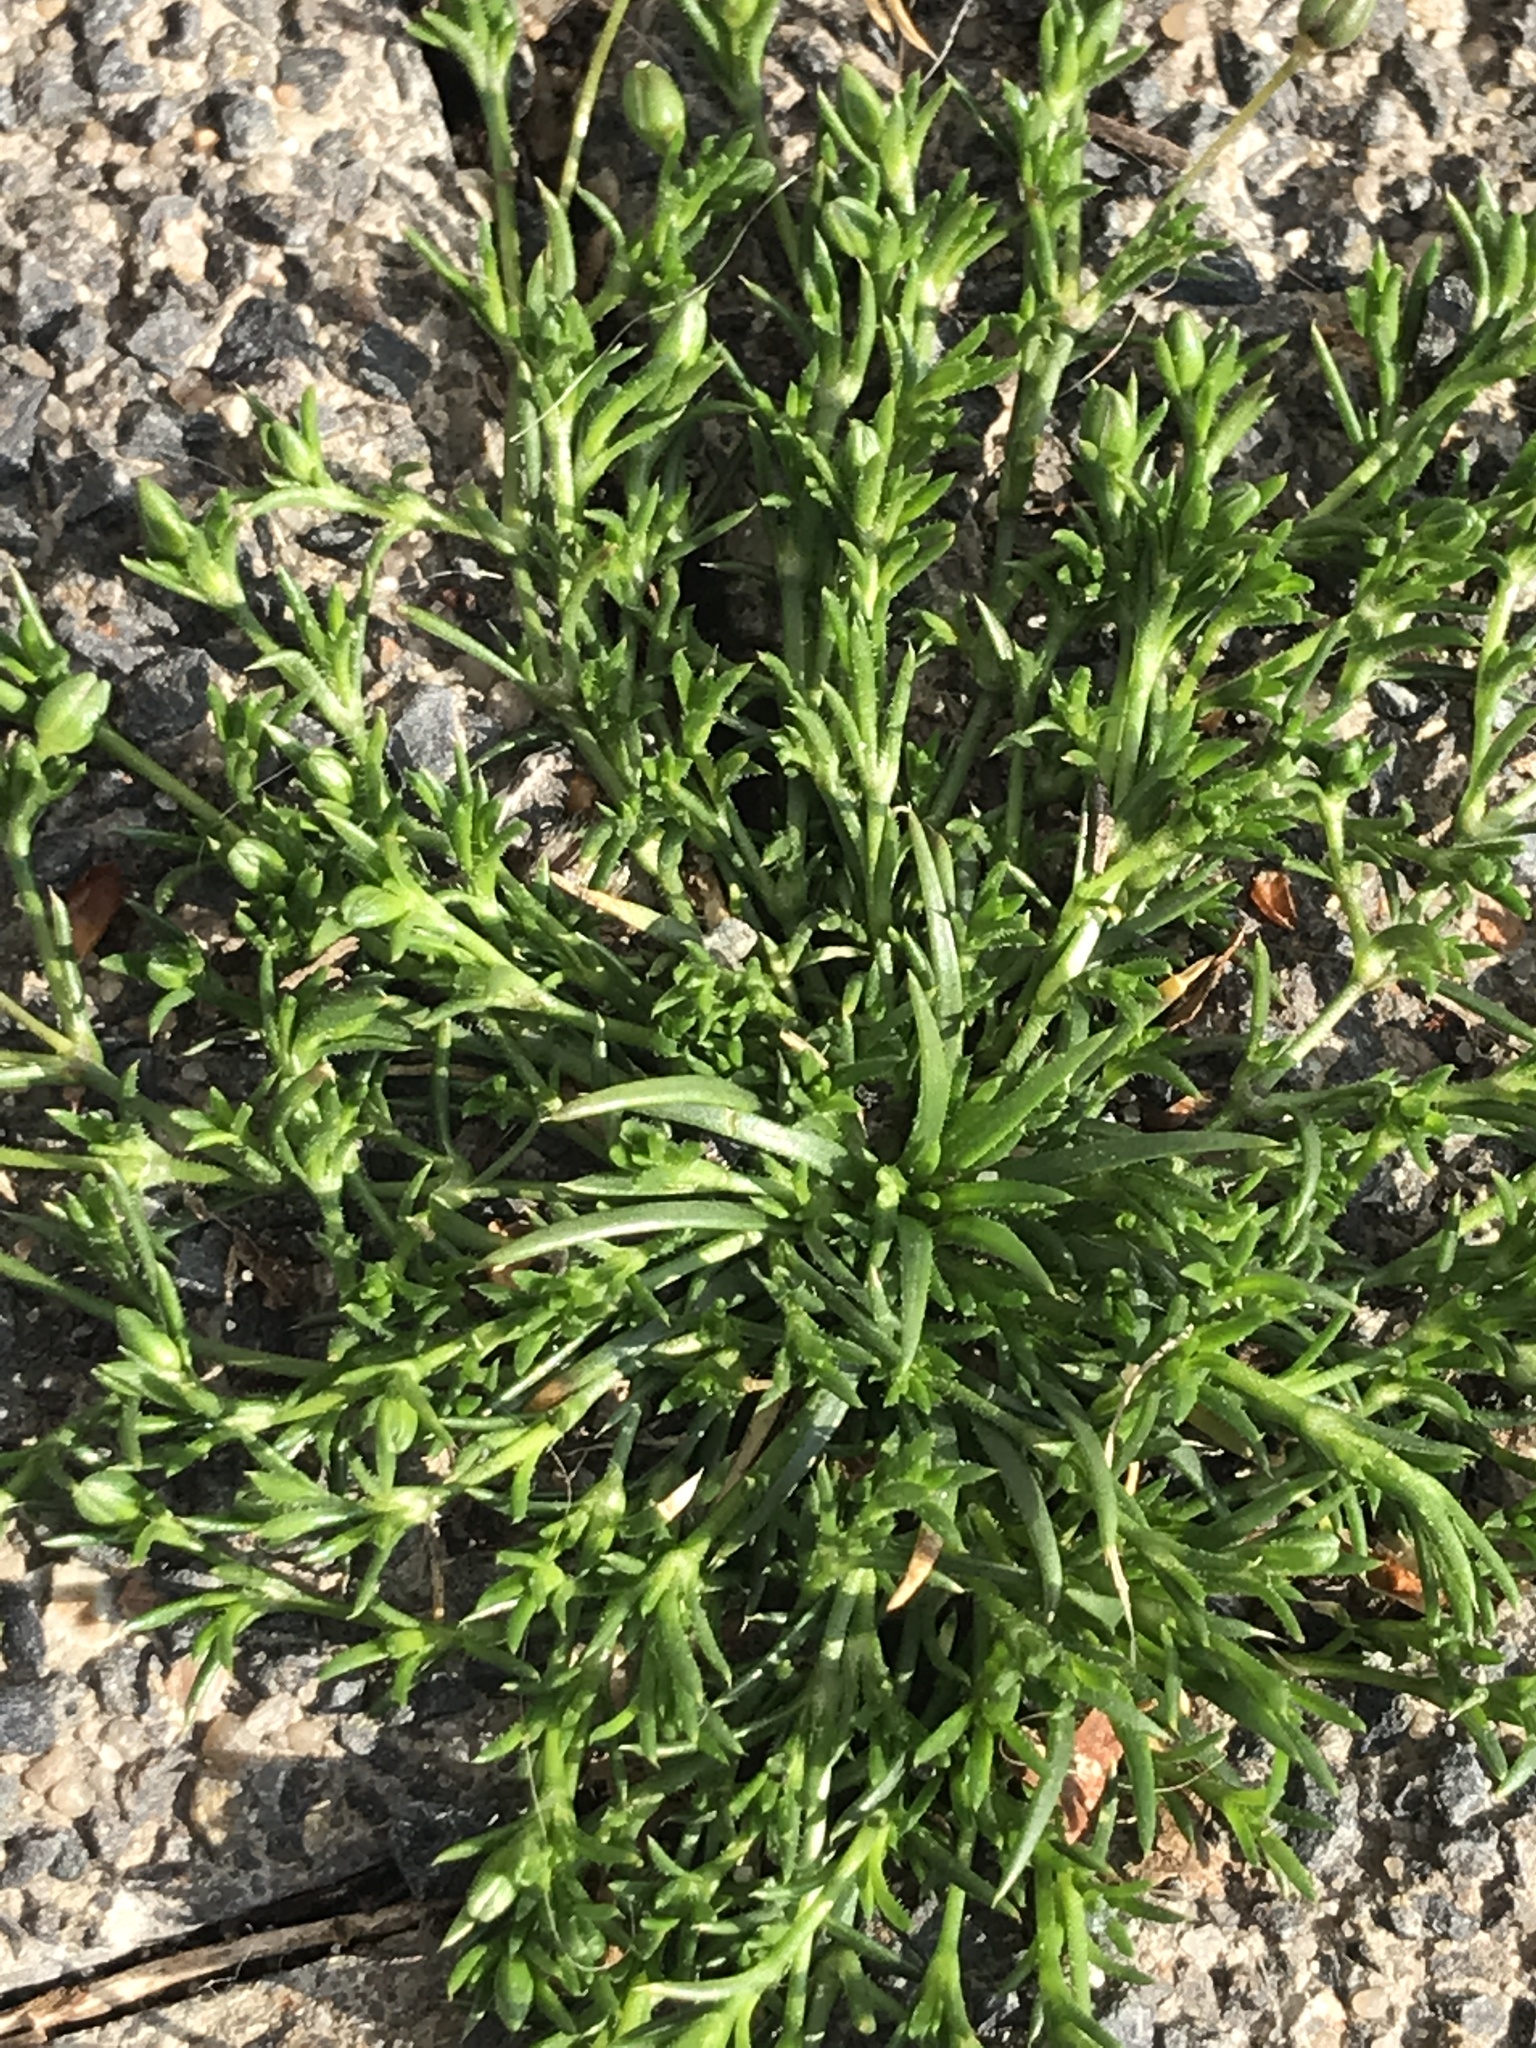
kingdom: Plantae
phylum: Tracheophyta
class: Magnoliopsida
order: Caryophyllales
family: Caryophyllaceae
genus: Sagina
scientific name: Sagina procumbens
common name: Procumbent pearlwort
